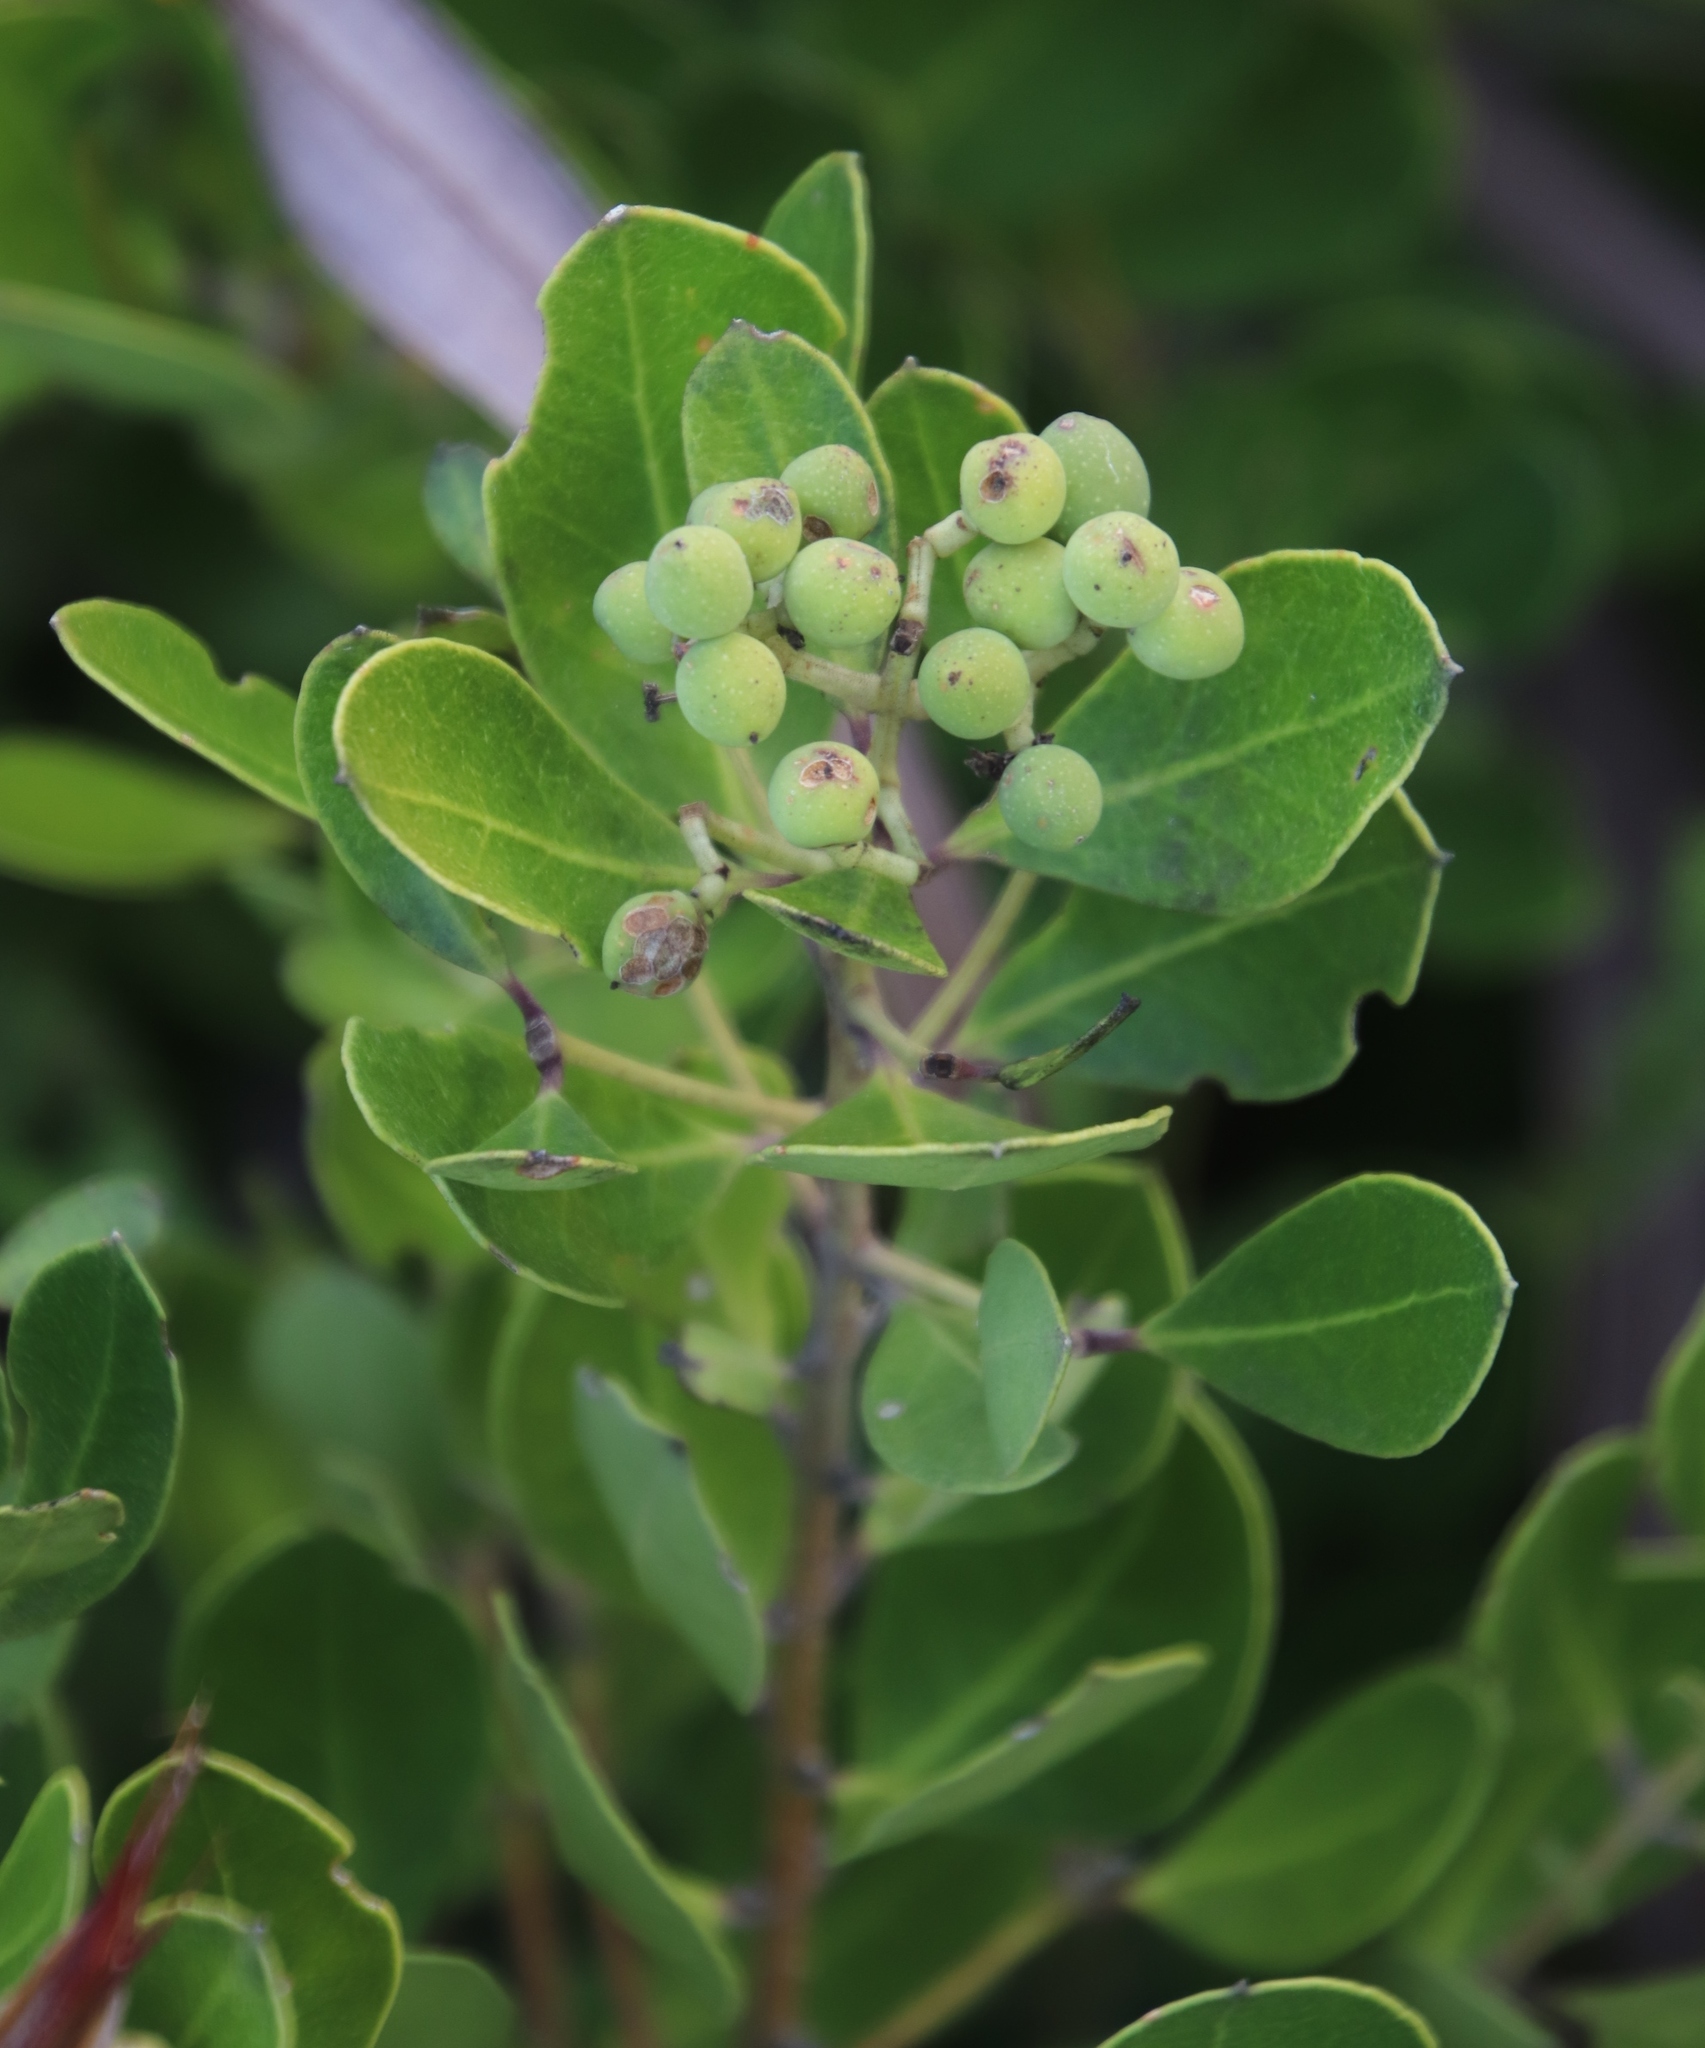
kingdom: Plantae
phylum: Tracheophyta
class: Magnoliopsida
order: Lamiales
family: Oleaceae
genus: Olea
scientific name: Olea capensis
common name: Black ironwood
